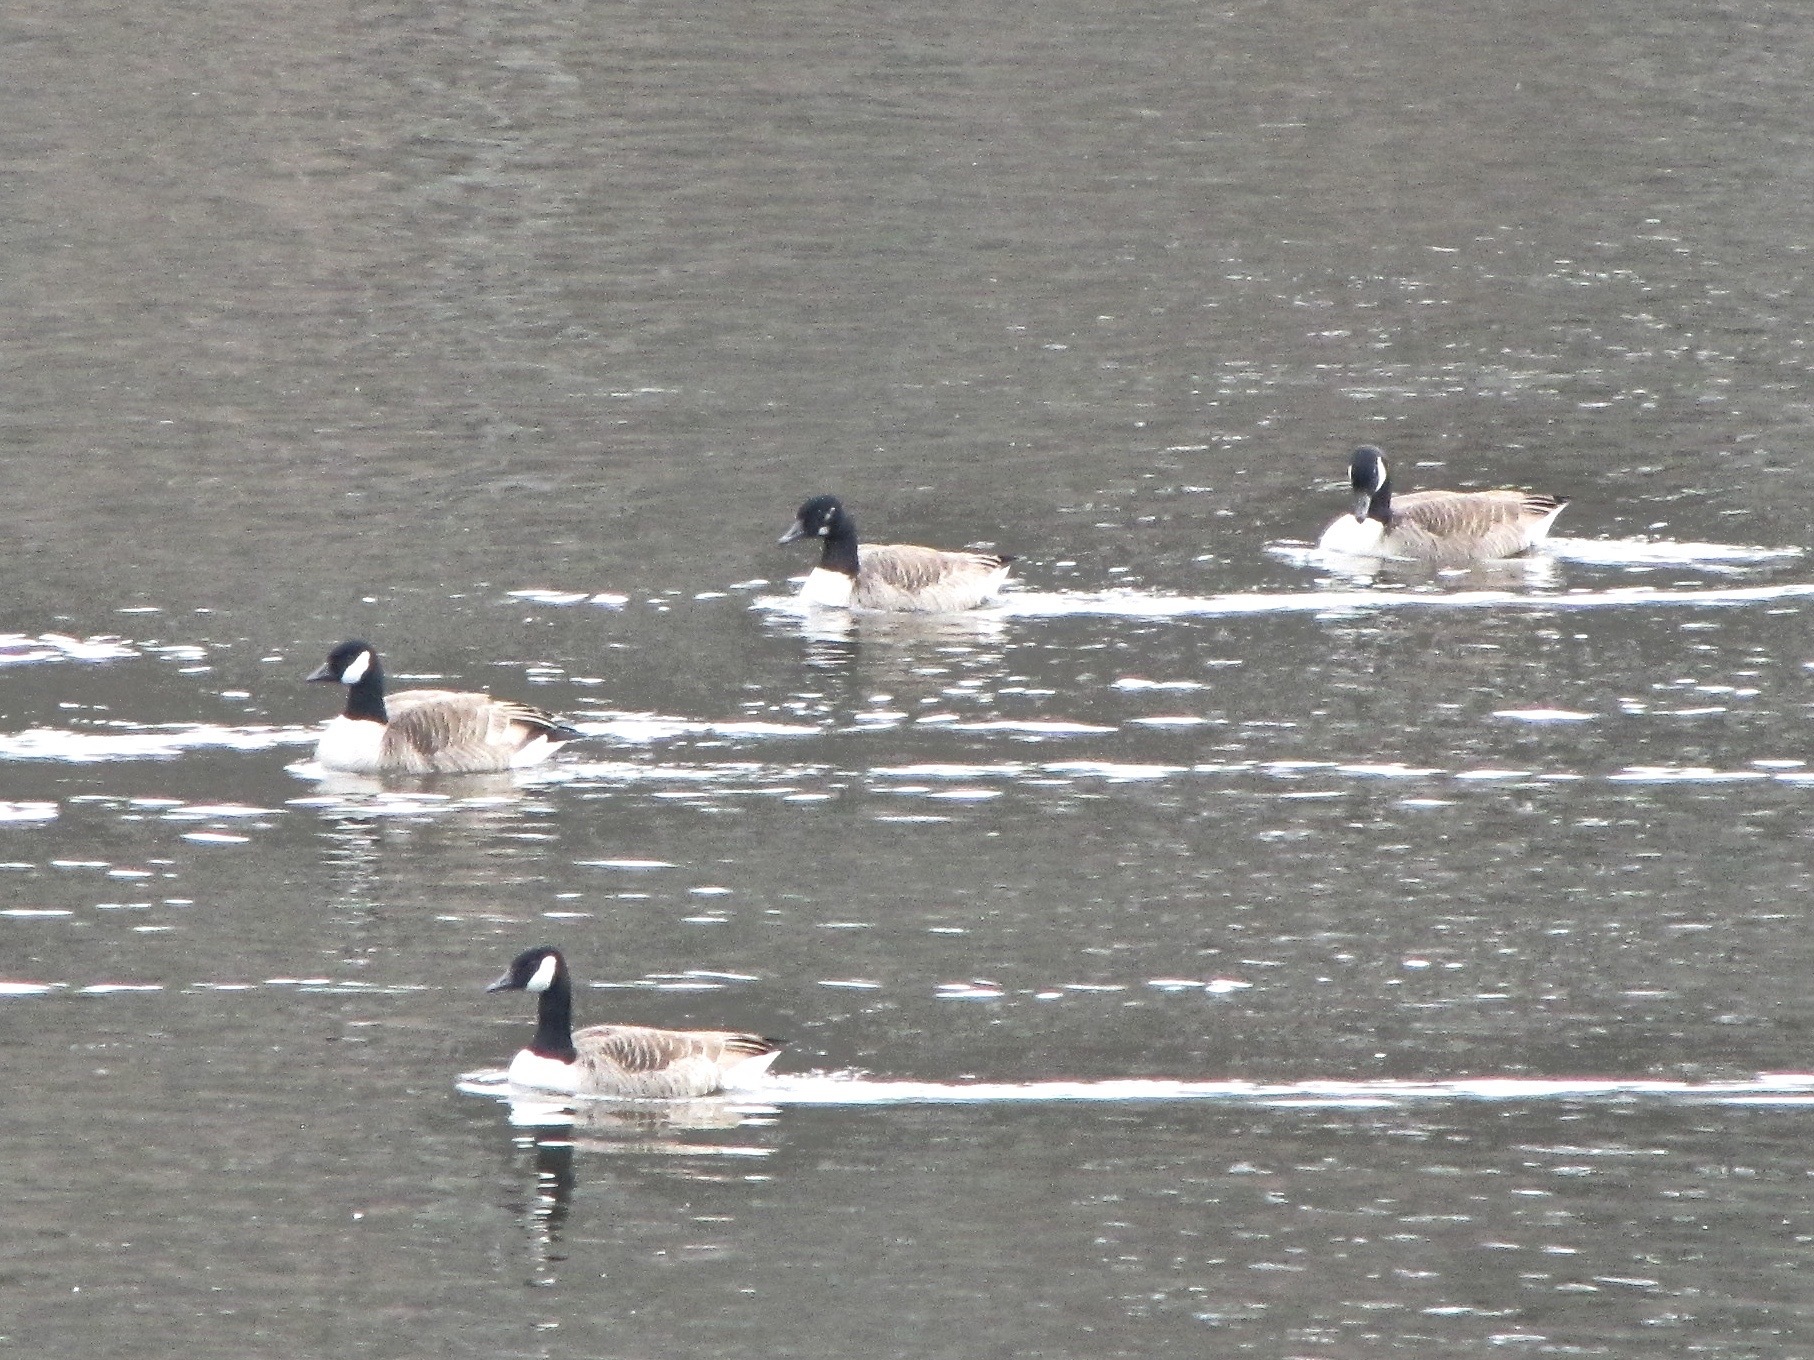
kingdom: Animalia
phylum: Chordata
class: Aves
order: Anseriformes
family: Anatidae
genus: Branta
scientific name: Branta canadensis
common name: Canada goose
